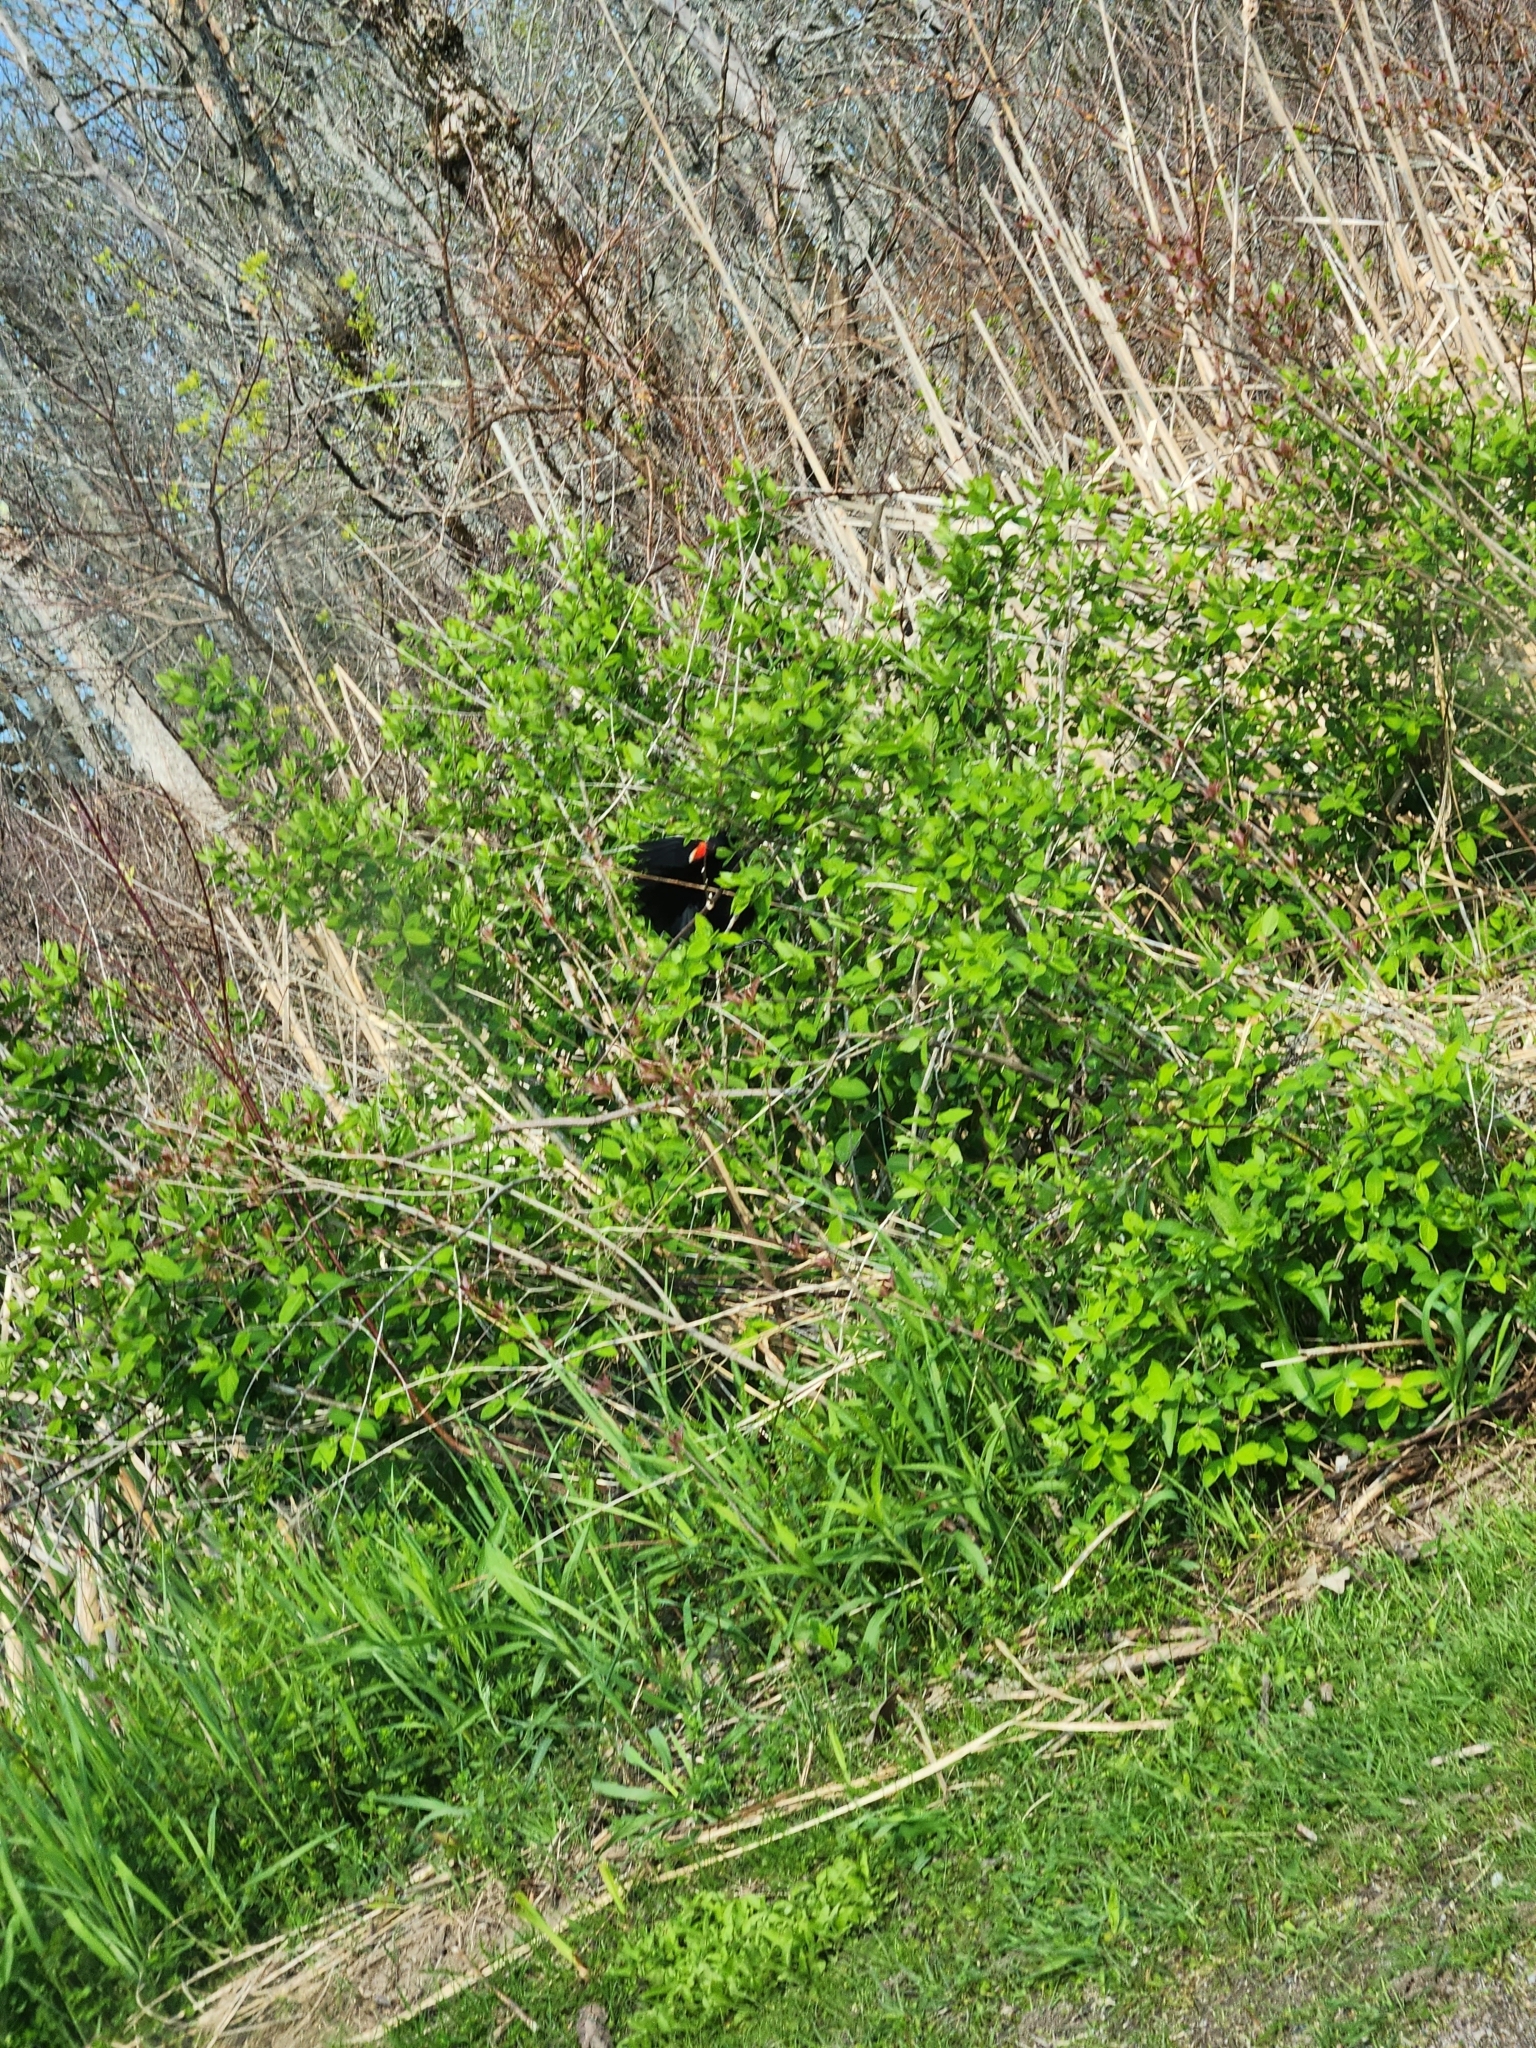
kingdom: Animalia
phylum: Chordata
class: Aves
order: Passeriformes
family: Icteridae
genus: Agelaius
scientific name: Agelaius phoeniceus
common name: Red-winged blackbird
